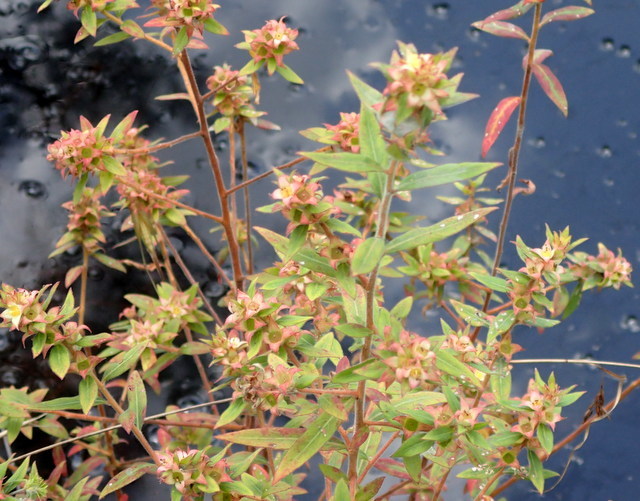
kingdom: Plantae
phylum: Tracheophyta
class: Magnoliopsida
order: Myrtales
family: Onagraceae
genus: Ludwigia
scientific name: Ludwigia pilosa
